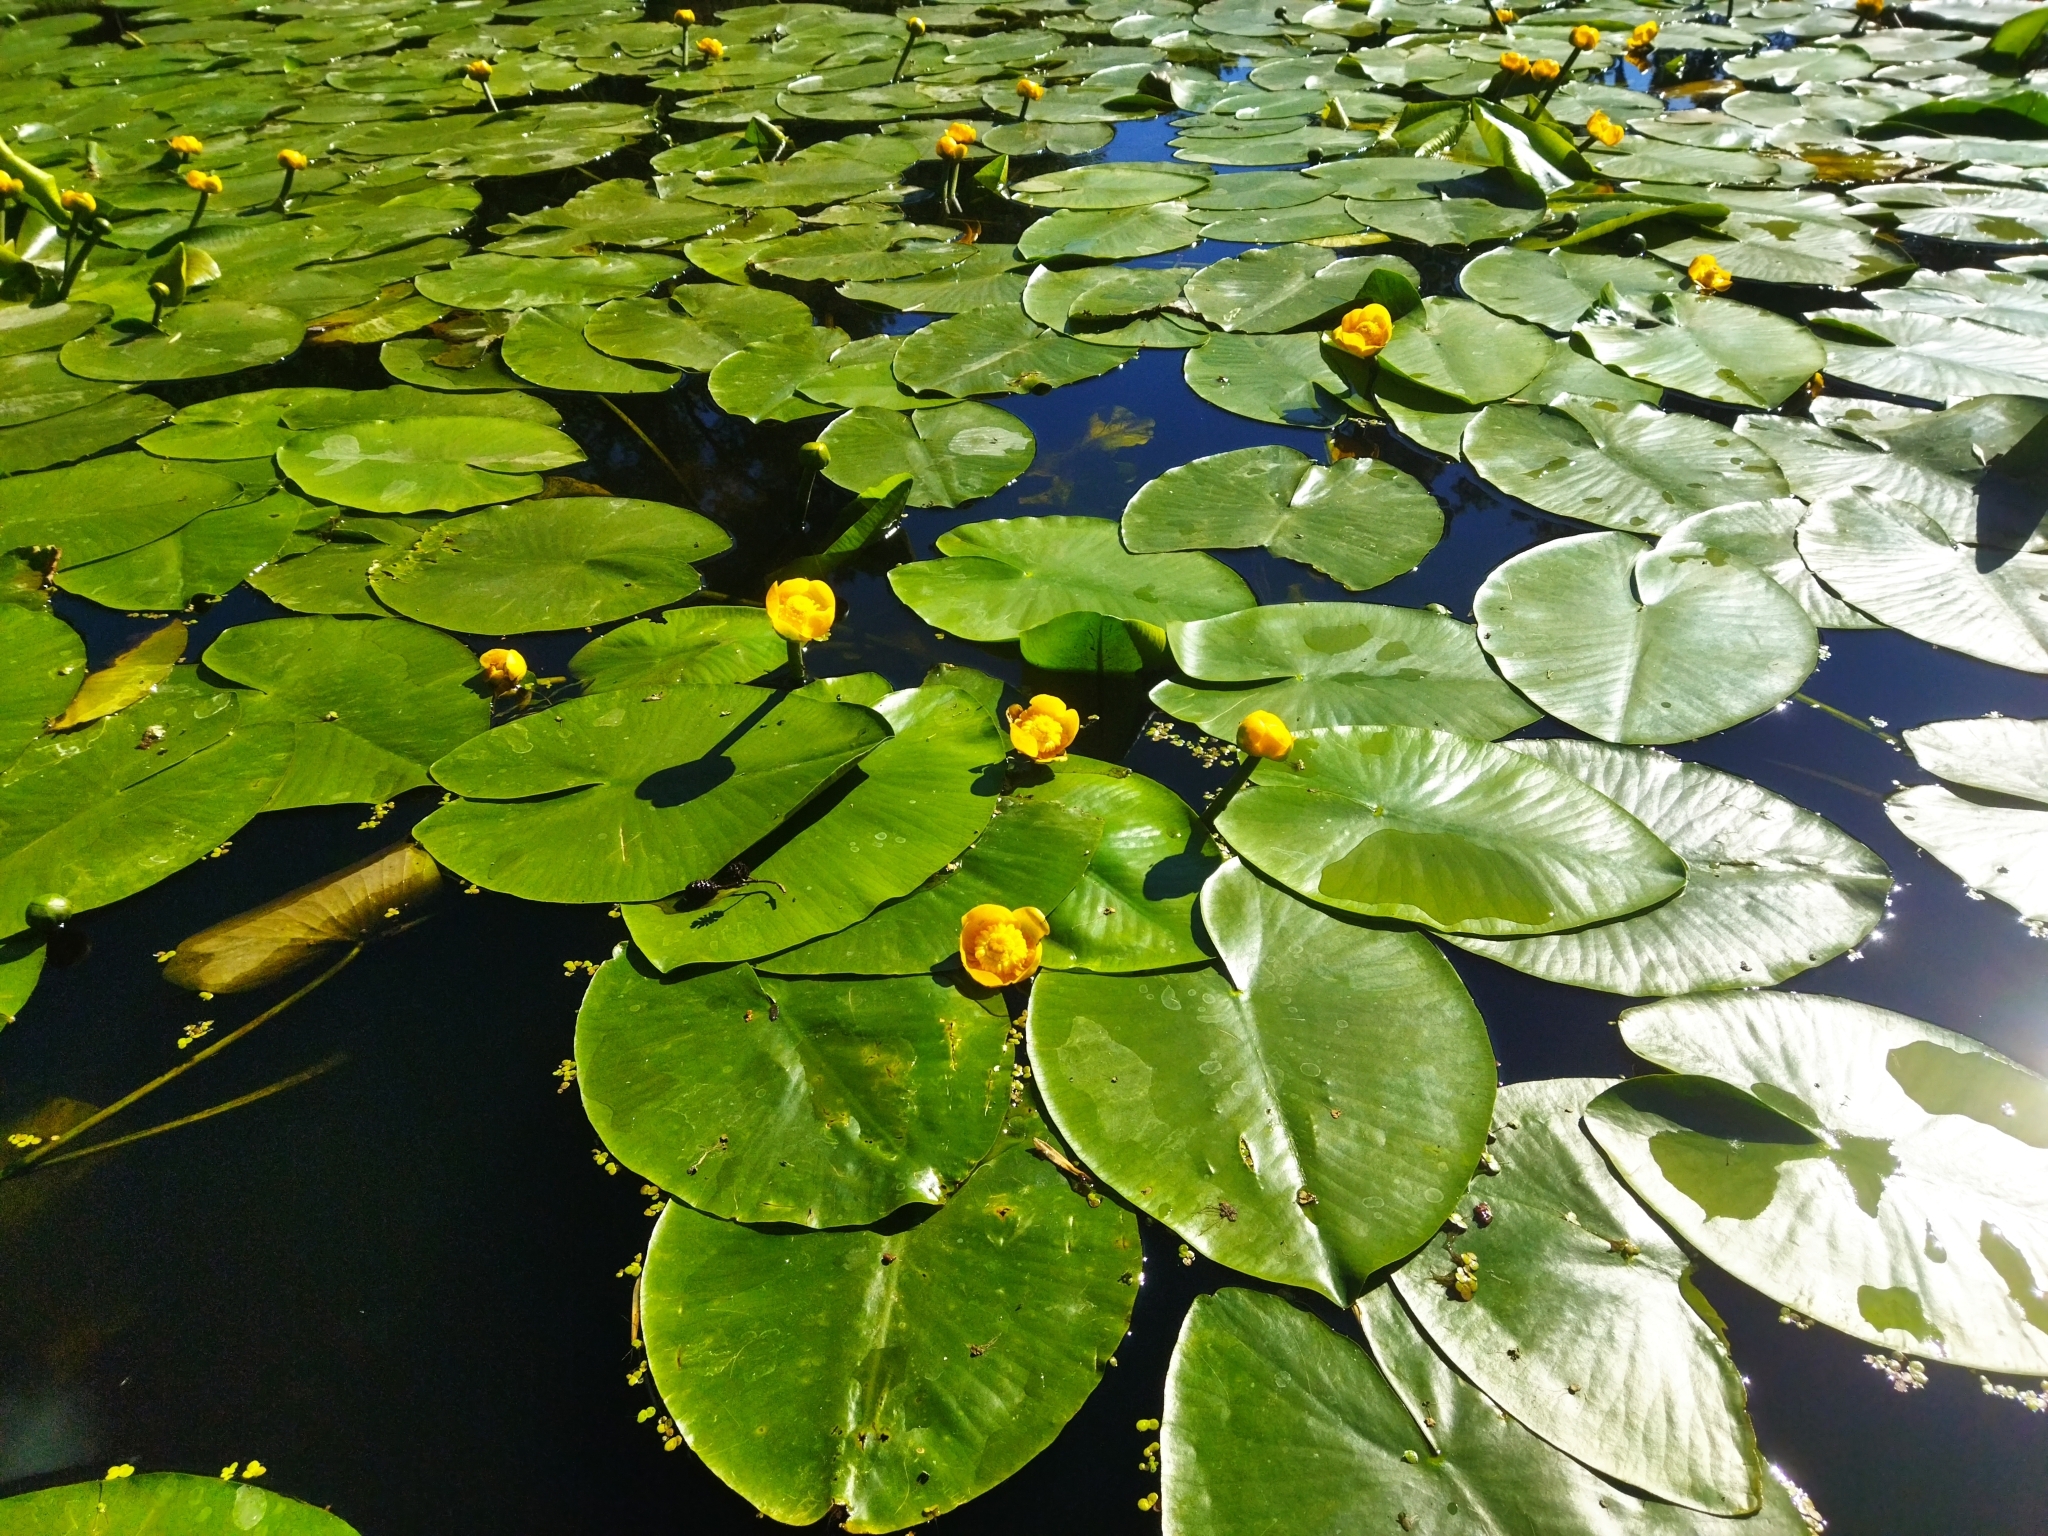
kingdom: Plantae
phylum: Tracheophyta
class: Magnoliopsida
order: Nymphaeales
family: Nymphaeaceae
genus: Nuphar
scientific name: Nuphar lutea
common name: Yellow water-lily
